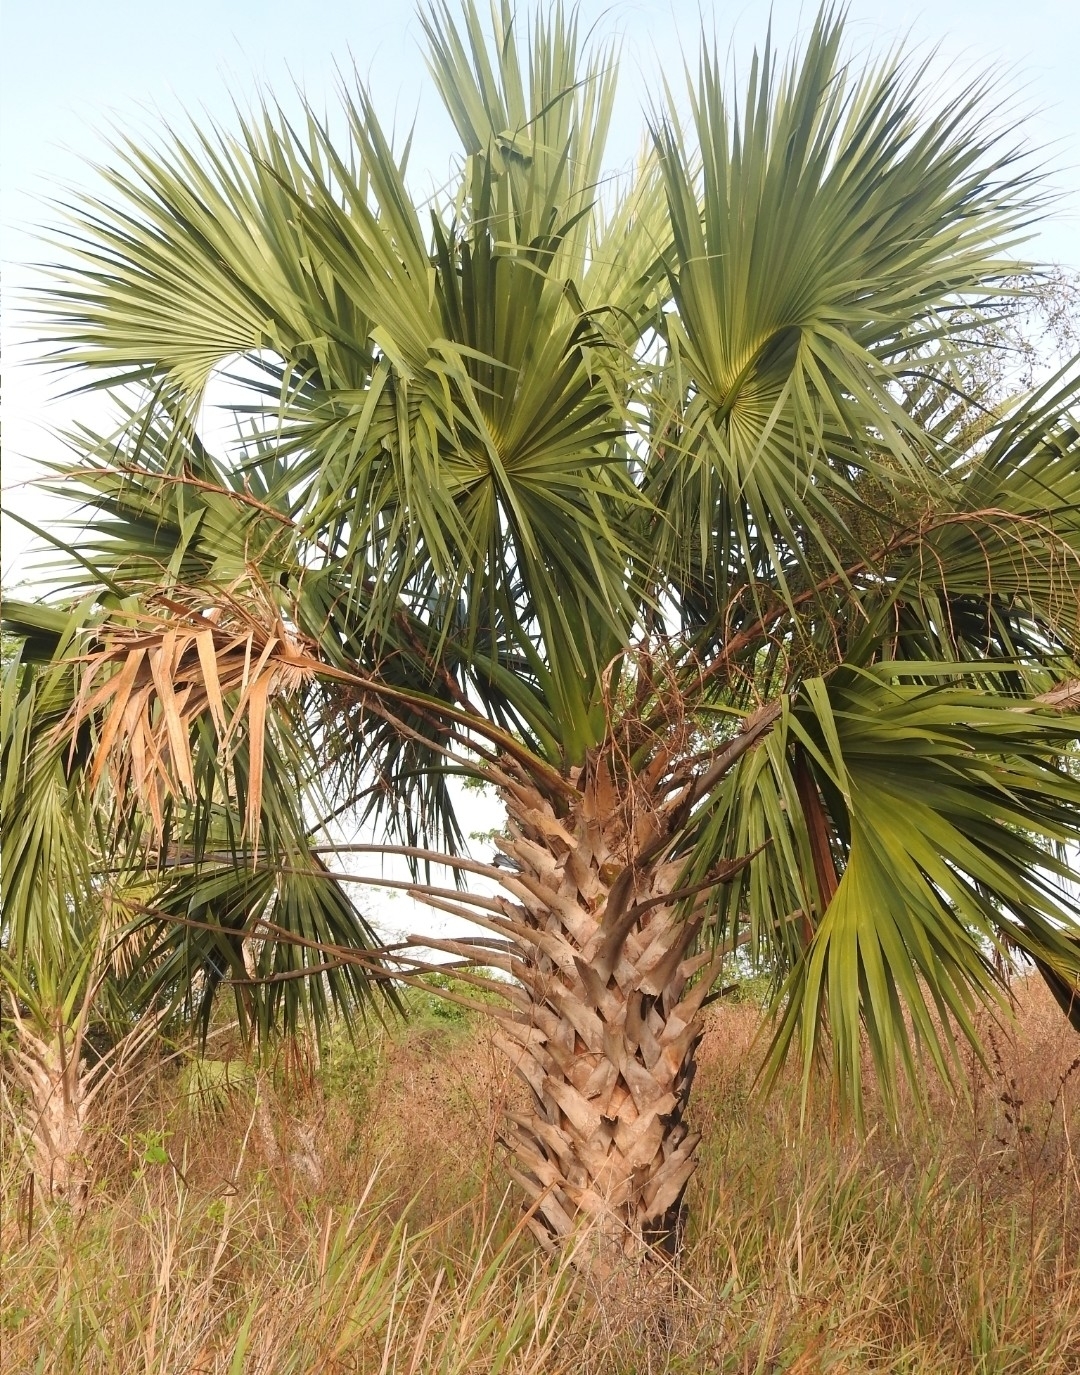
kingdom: Plantae
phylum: Tracheophyta
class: Liliopsida
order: Arecales
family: Arecaceae
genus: Sabal
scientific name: Sabal mexicana
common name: Texas palmetto
